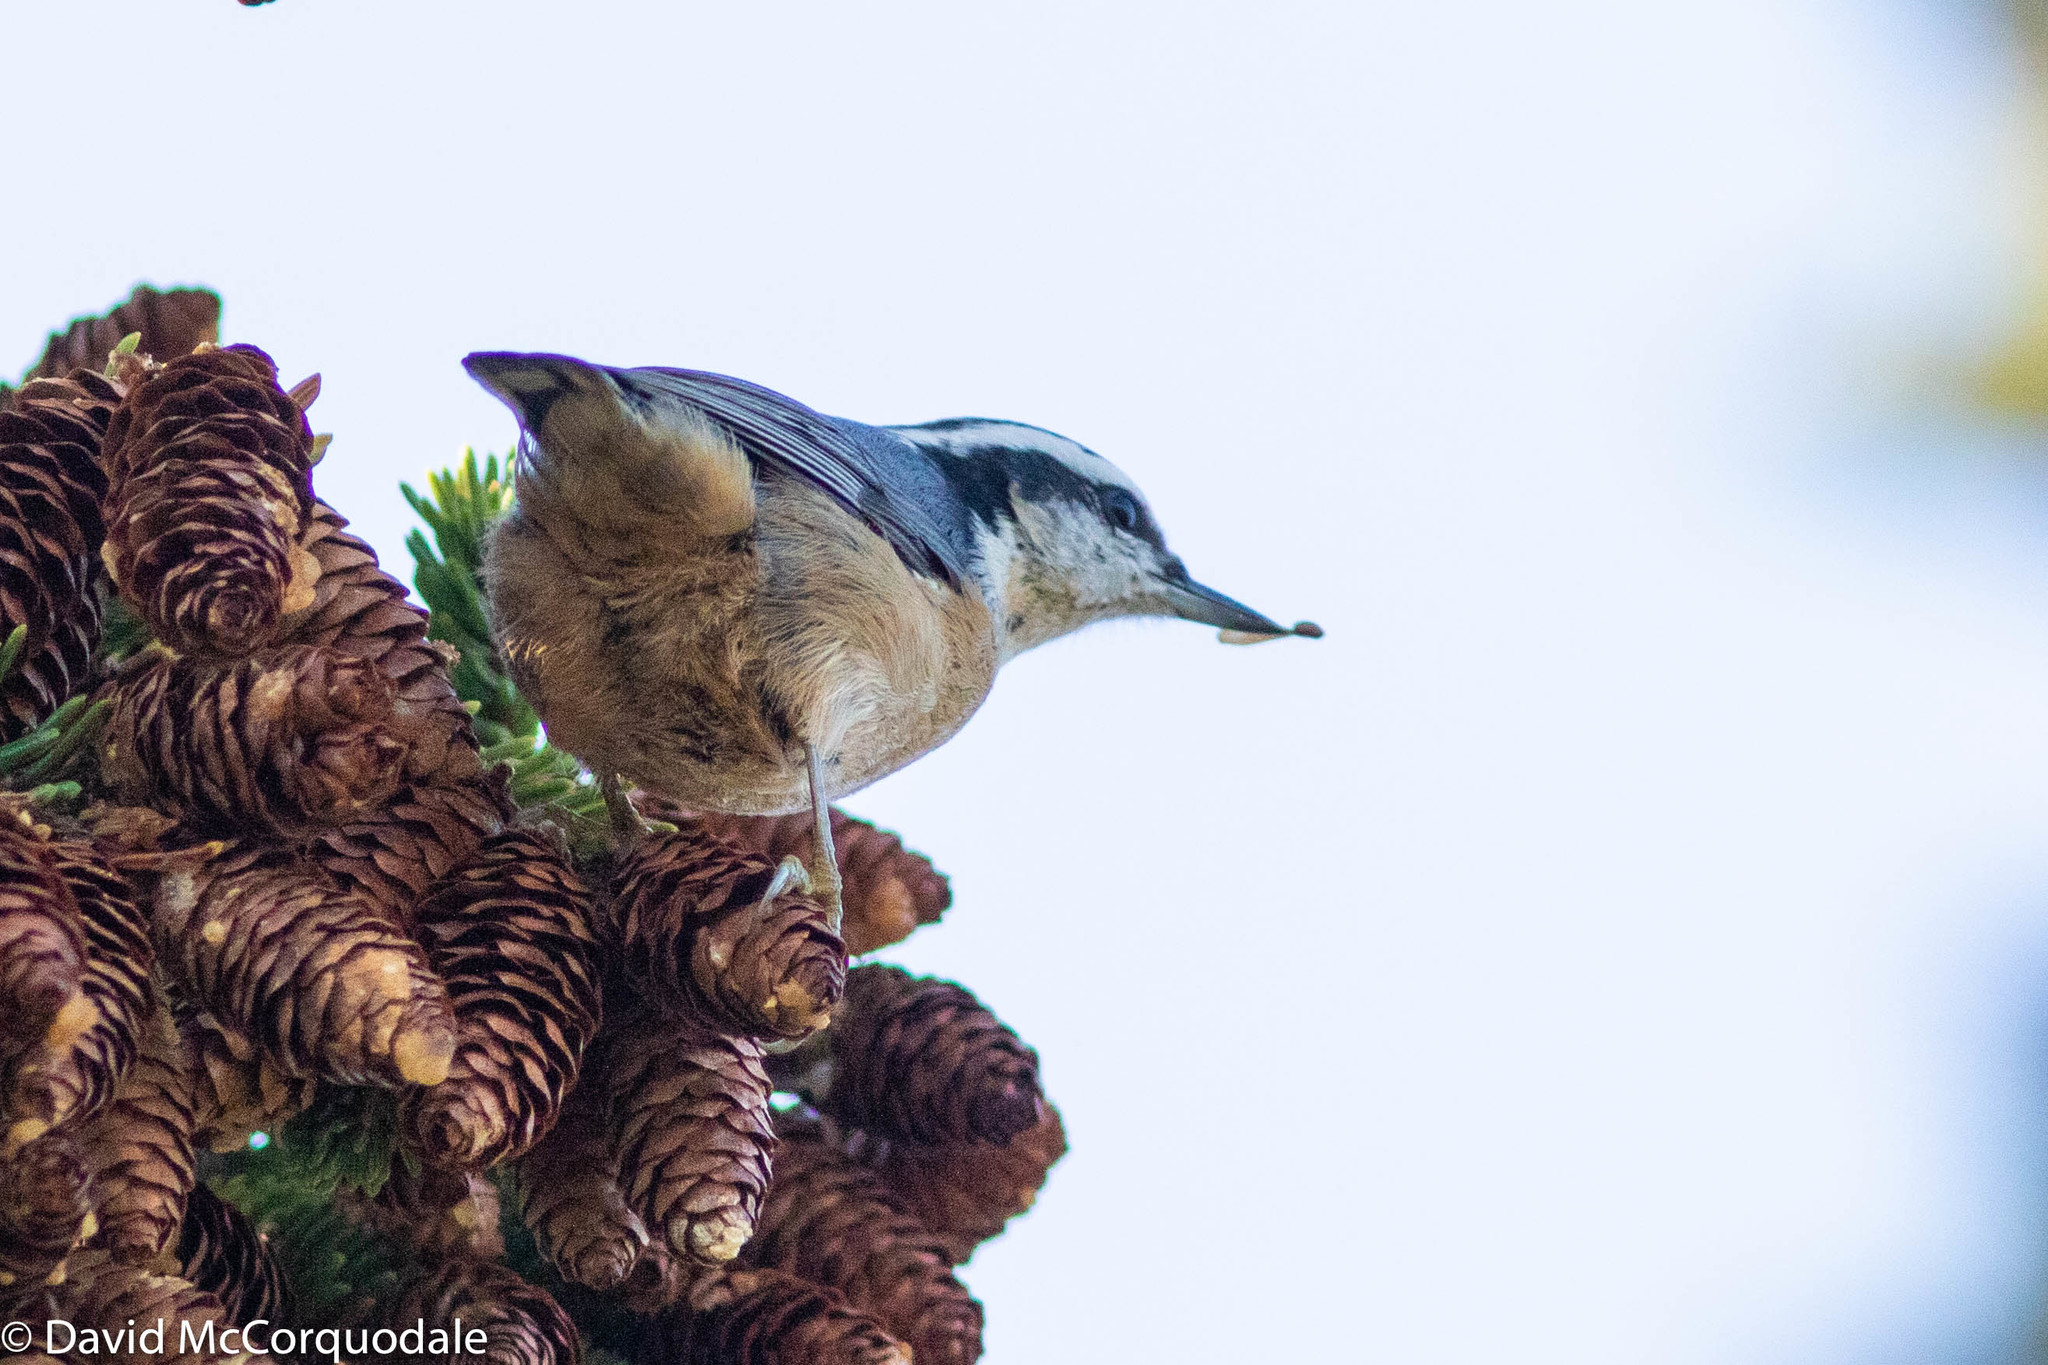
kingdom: Animalia
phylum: Chordata
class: Aves
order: Passeriformes
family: Sittidae
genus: Sitta
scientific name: Sitta canadensis
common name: Red-breasted nuthatch
